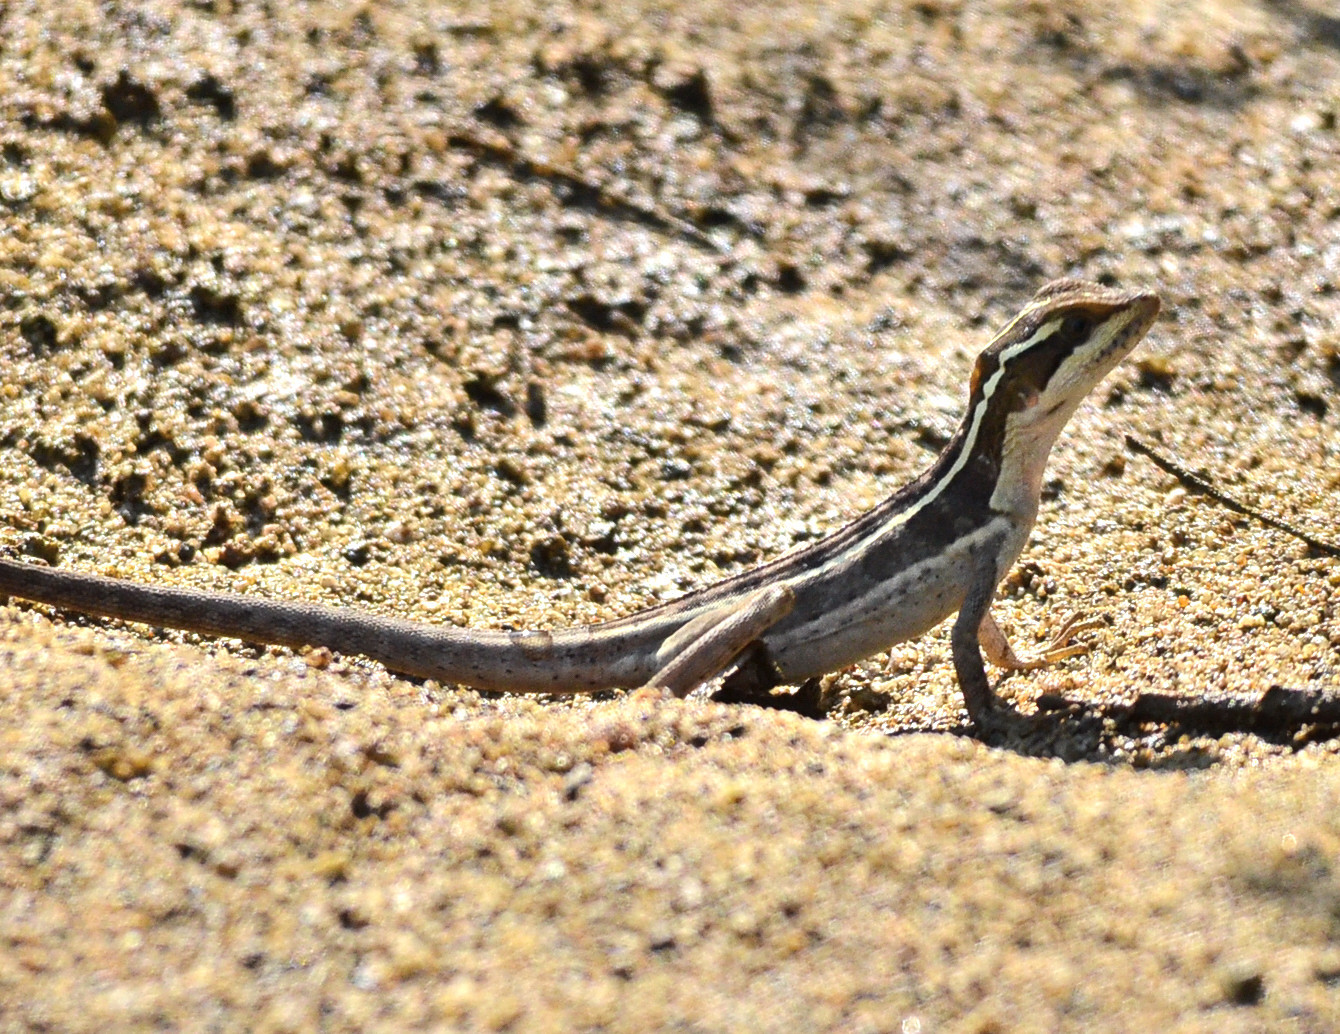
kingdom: Animalia
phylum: Chordata
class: Squamata
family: Corytophanidae
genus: Basiliscus
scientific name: Basiliscus vittatus
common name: Brown basilisk
